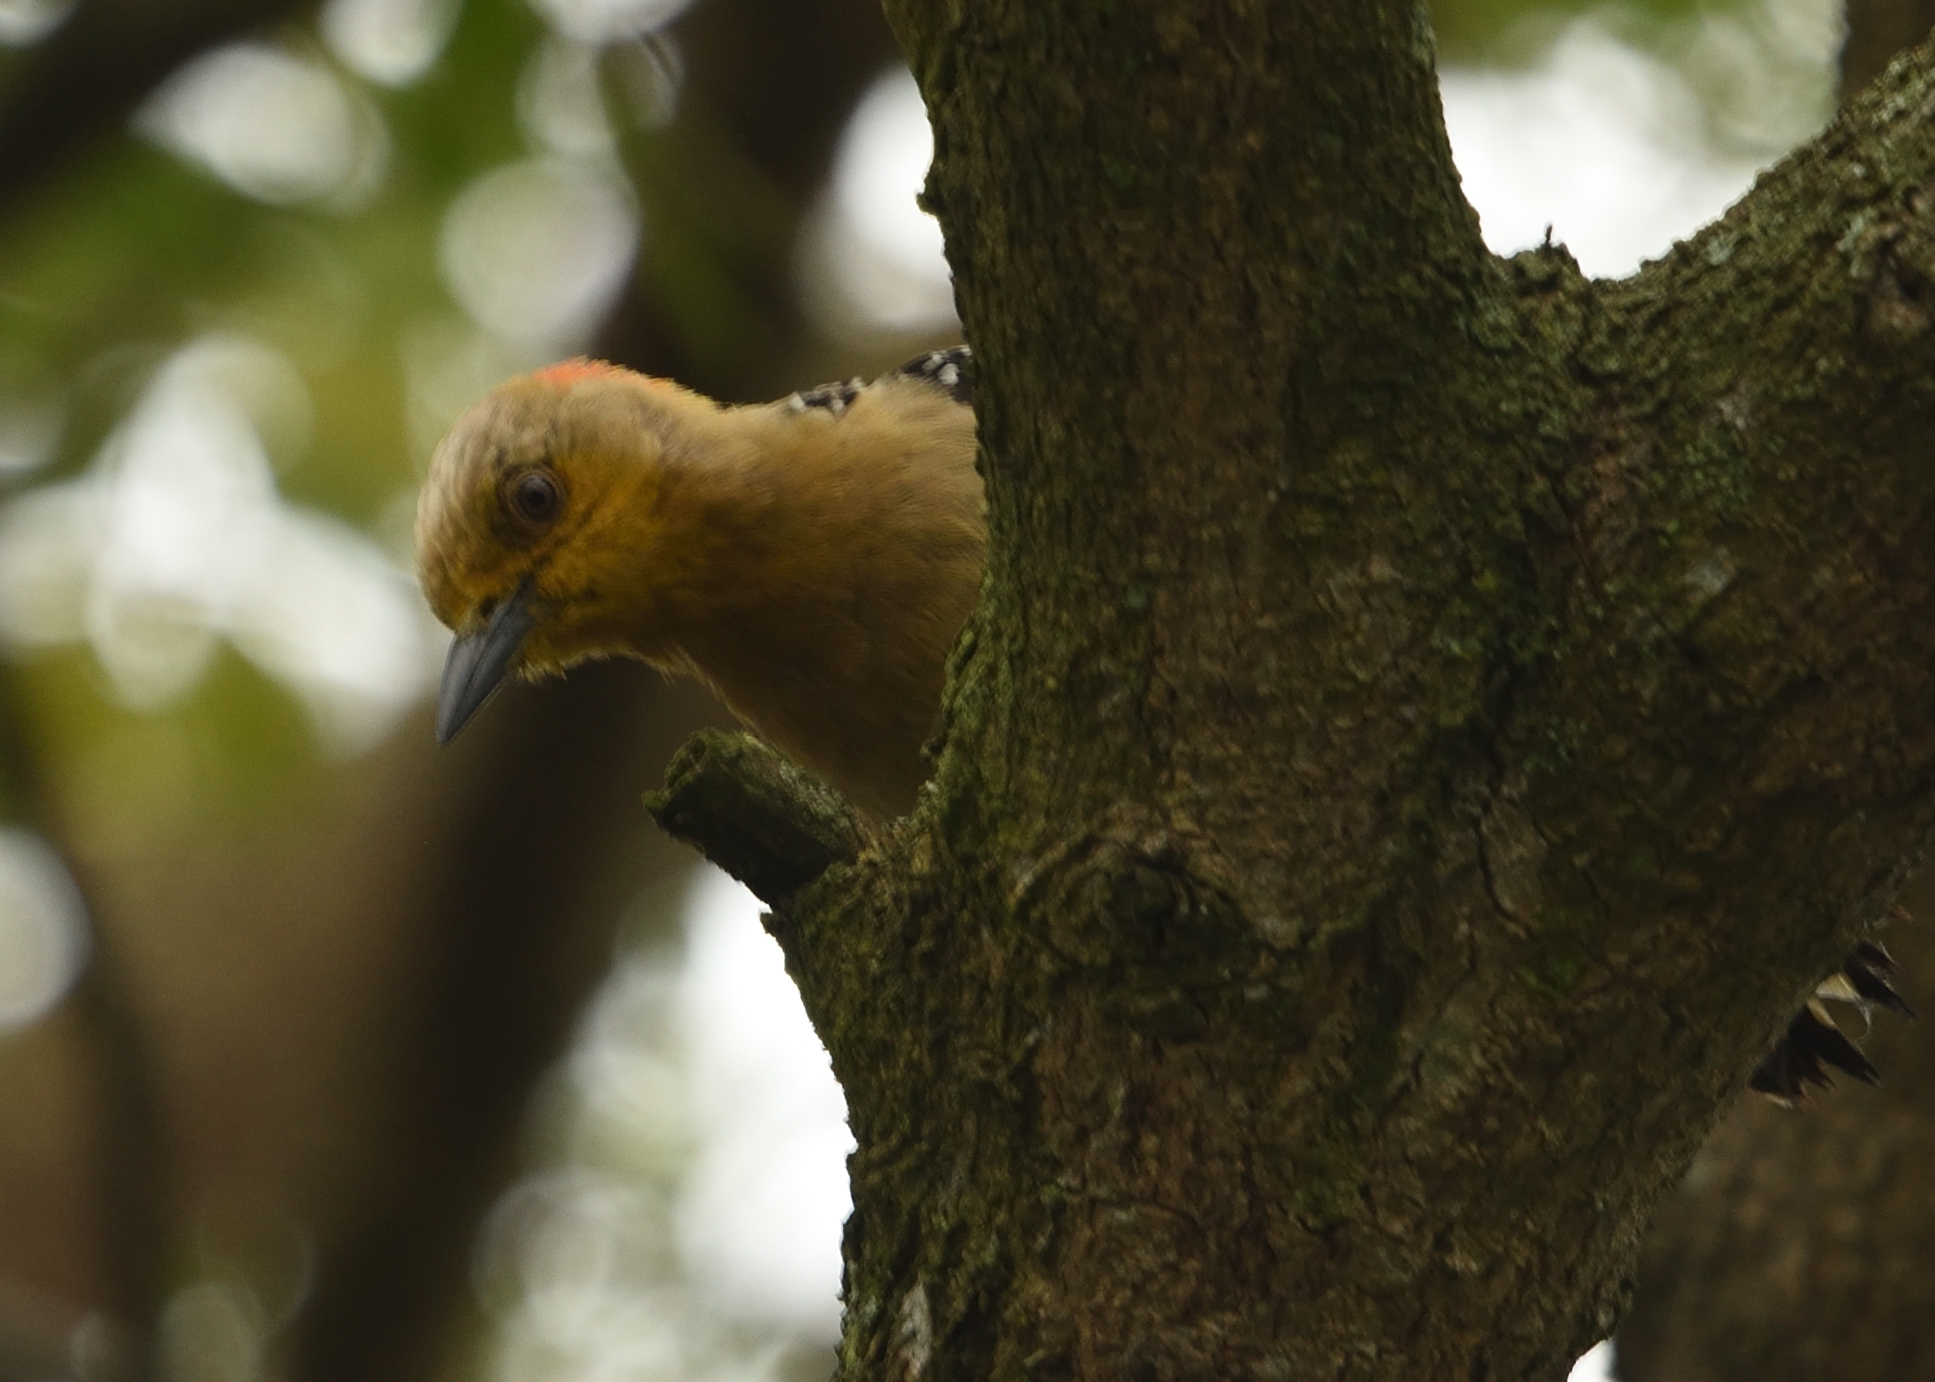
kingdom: Animalia
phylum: Chordata
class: Aves
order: Piciformes
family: Picidae
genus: Melanerpes
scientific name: Melanerpes rubricapillus
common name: Red-crowned woodpecker
